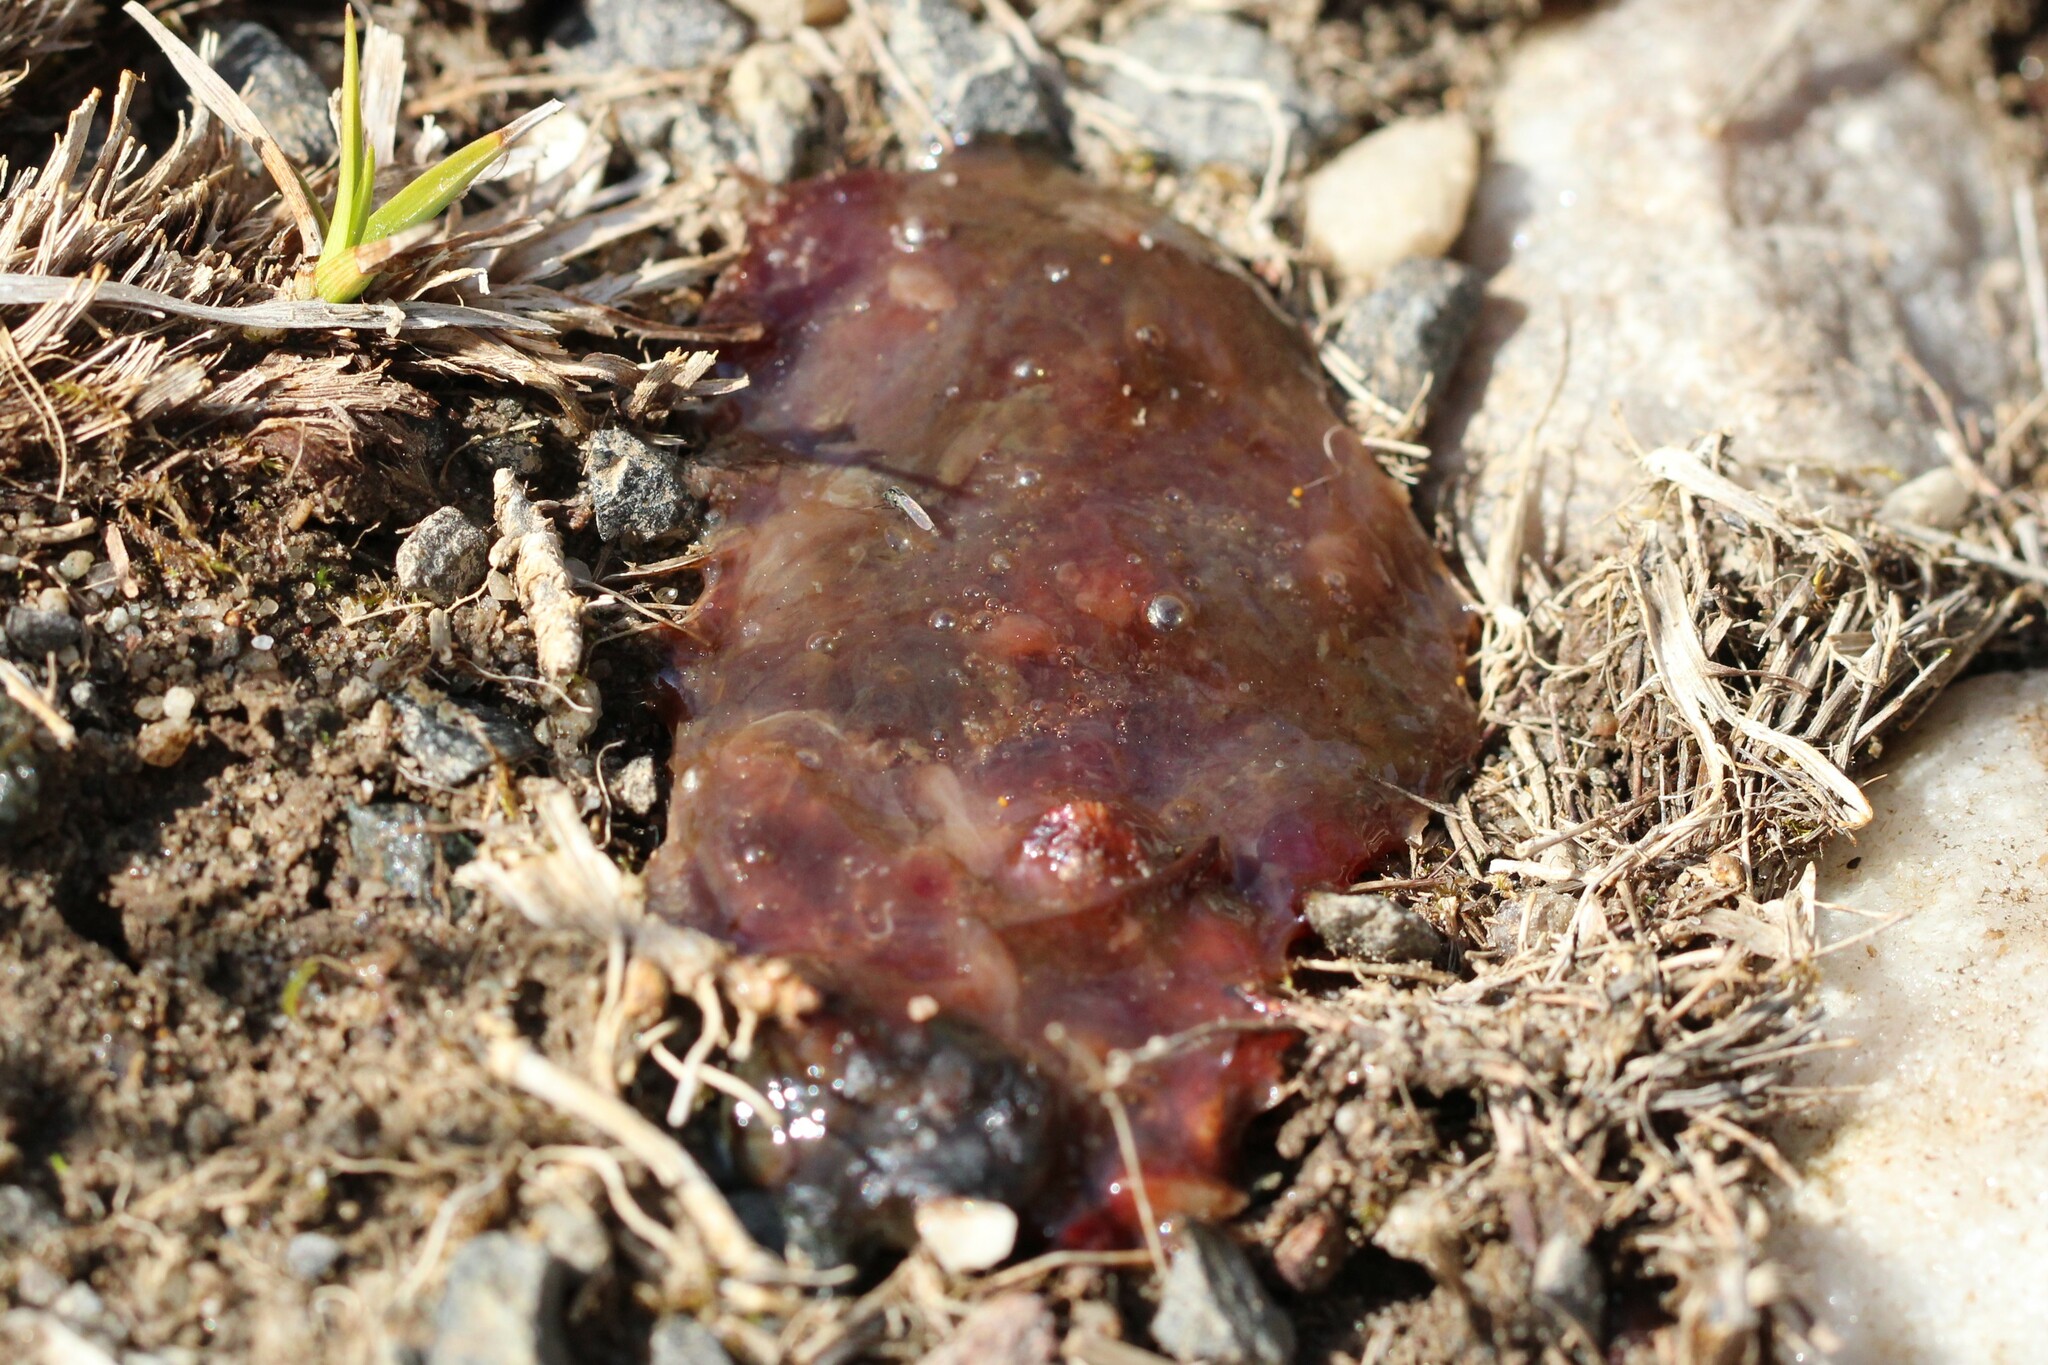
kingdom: Bacteria
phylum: Cyanobacteria
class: Cyanobacteriia
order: Cyanobacteriales
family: Nostocaceae
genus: Nostoc
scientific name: Nostoc commune
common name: Star jelly
